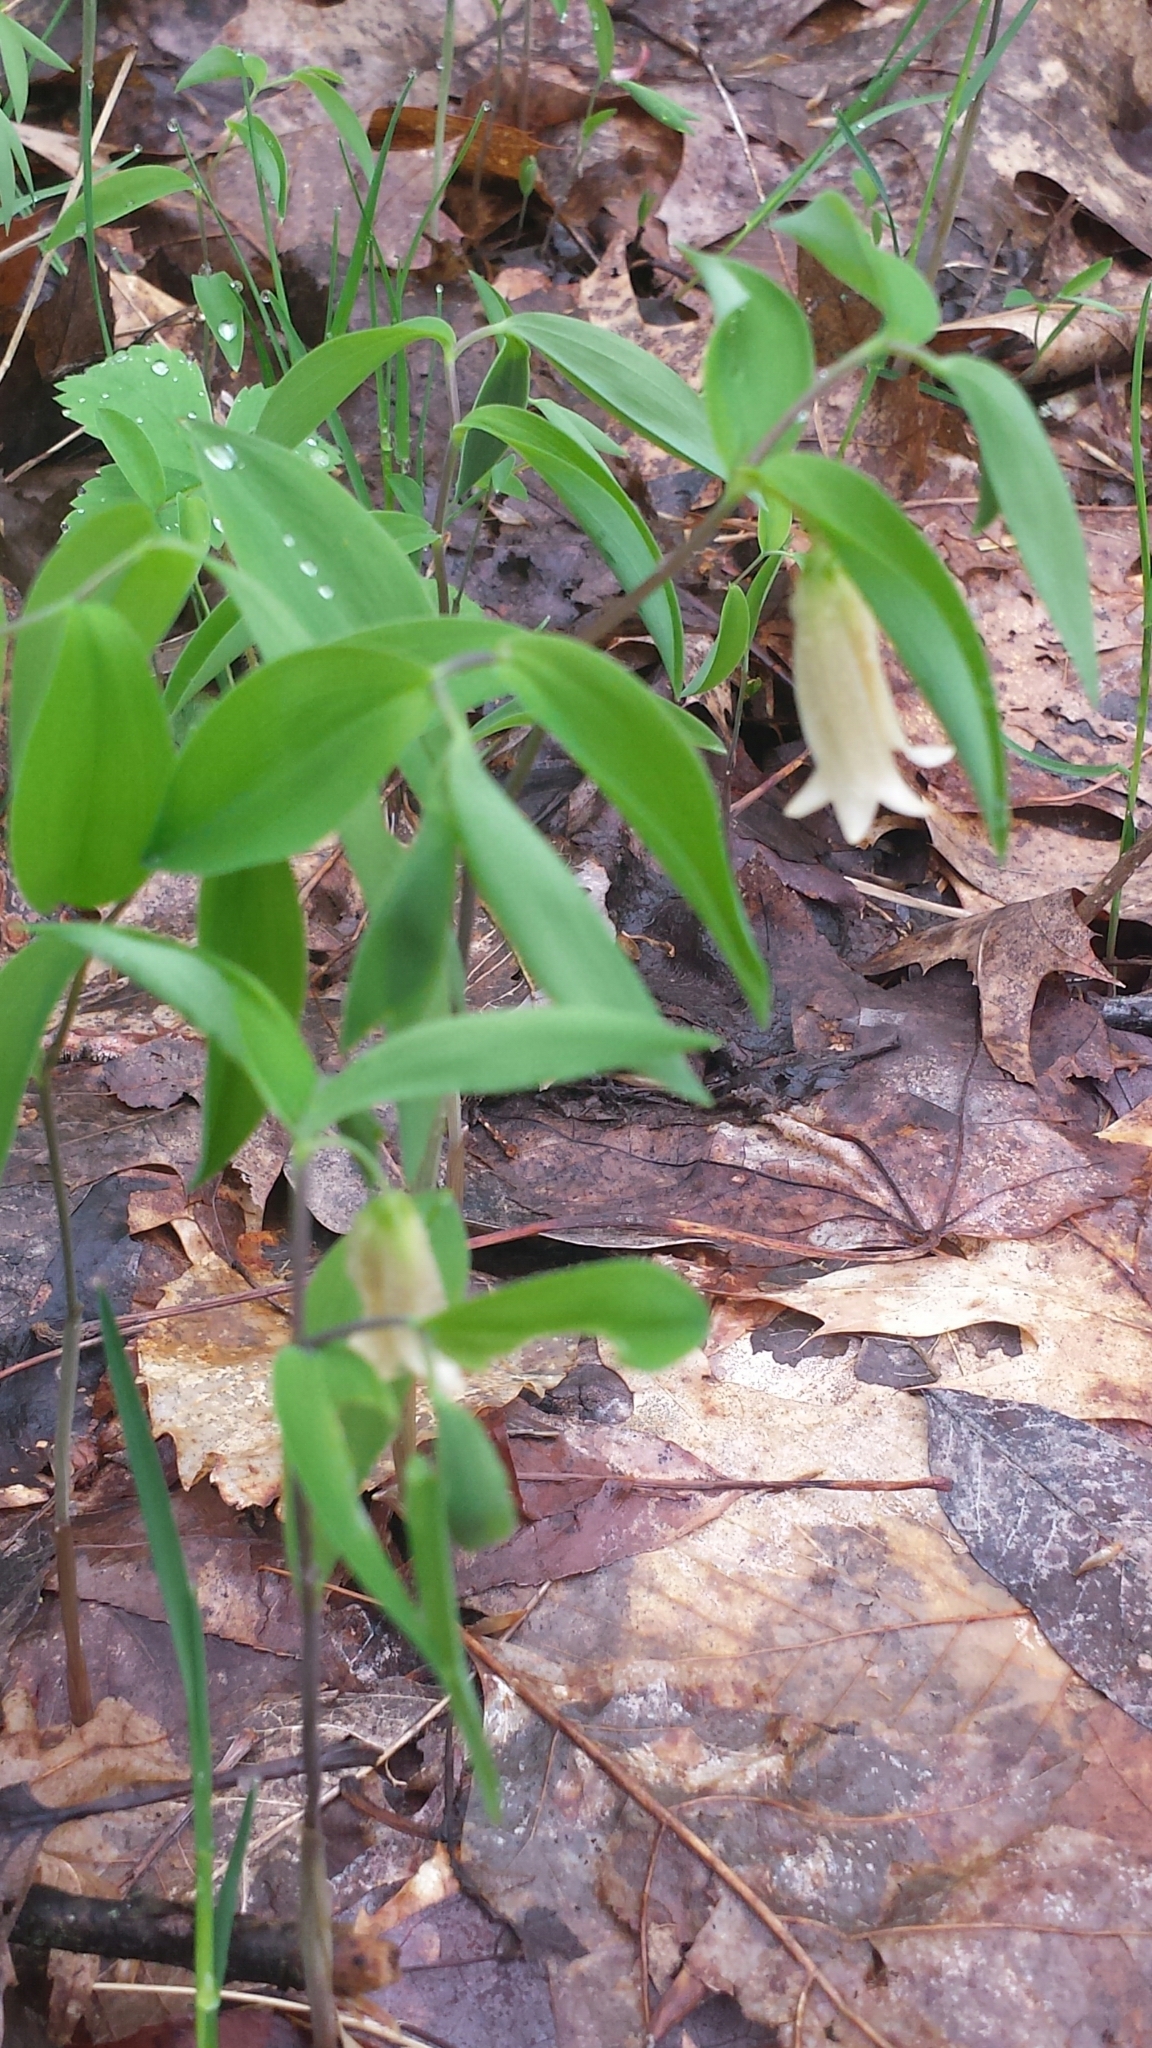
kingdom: Plantae
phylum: Tracheophyta
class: Liliopsida
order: Liliales
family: Colchicaceae
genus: Uvularia
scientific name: Uvularia sessilifolia
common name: Straw-lily
